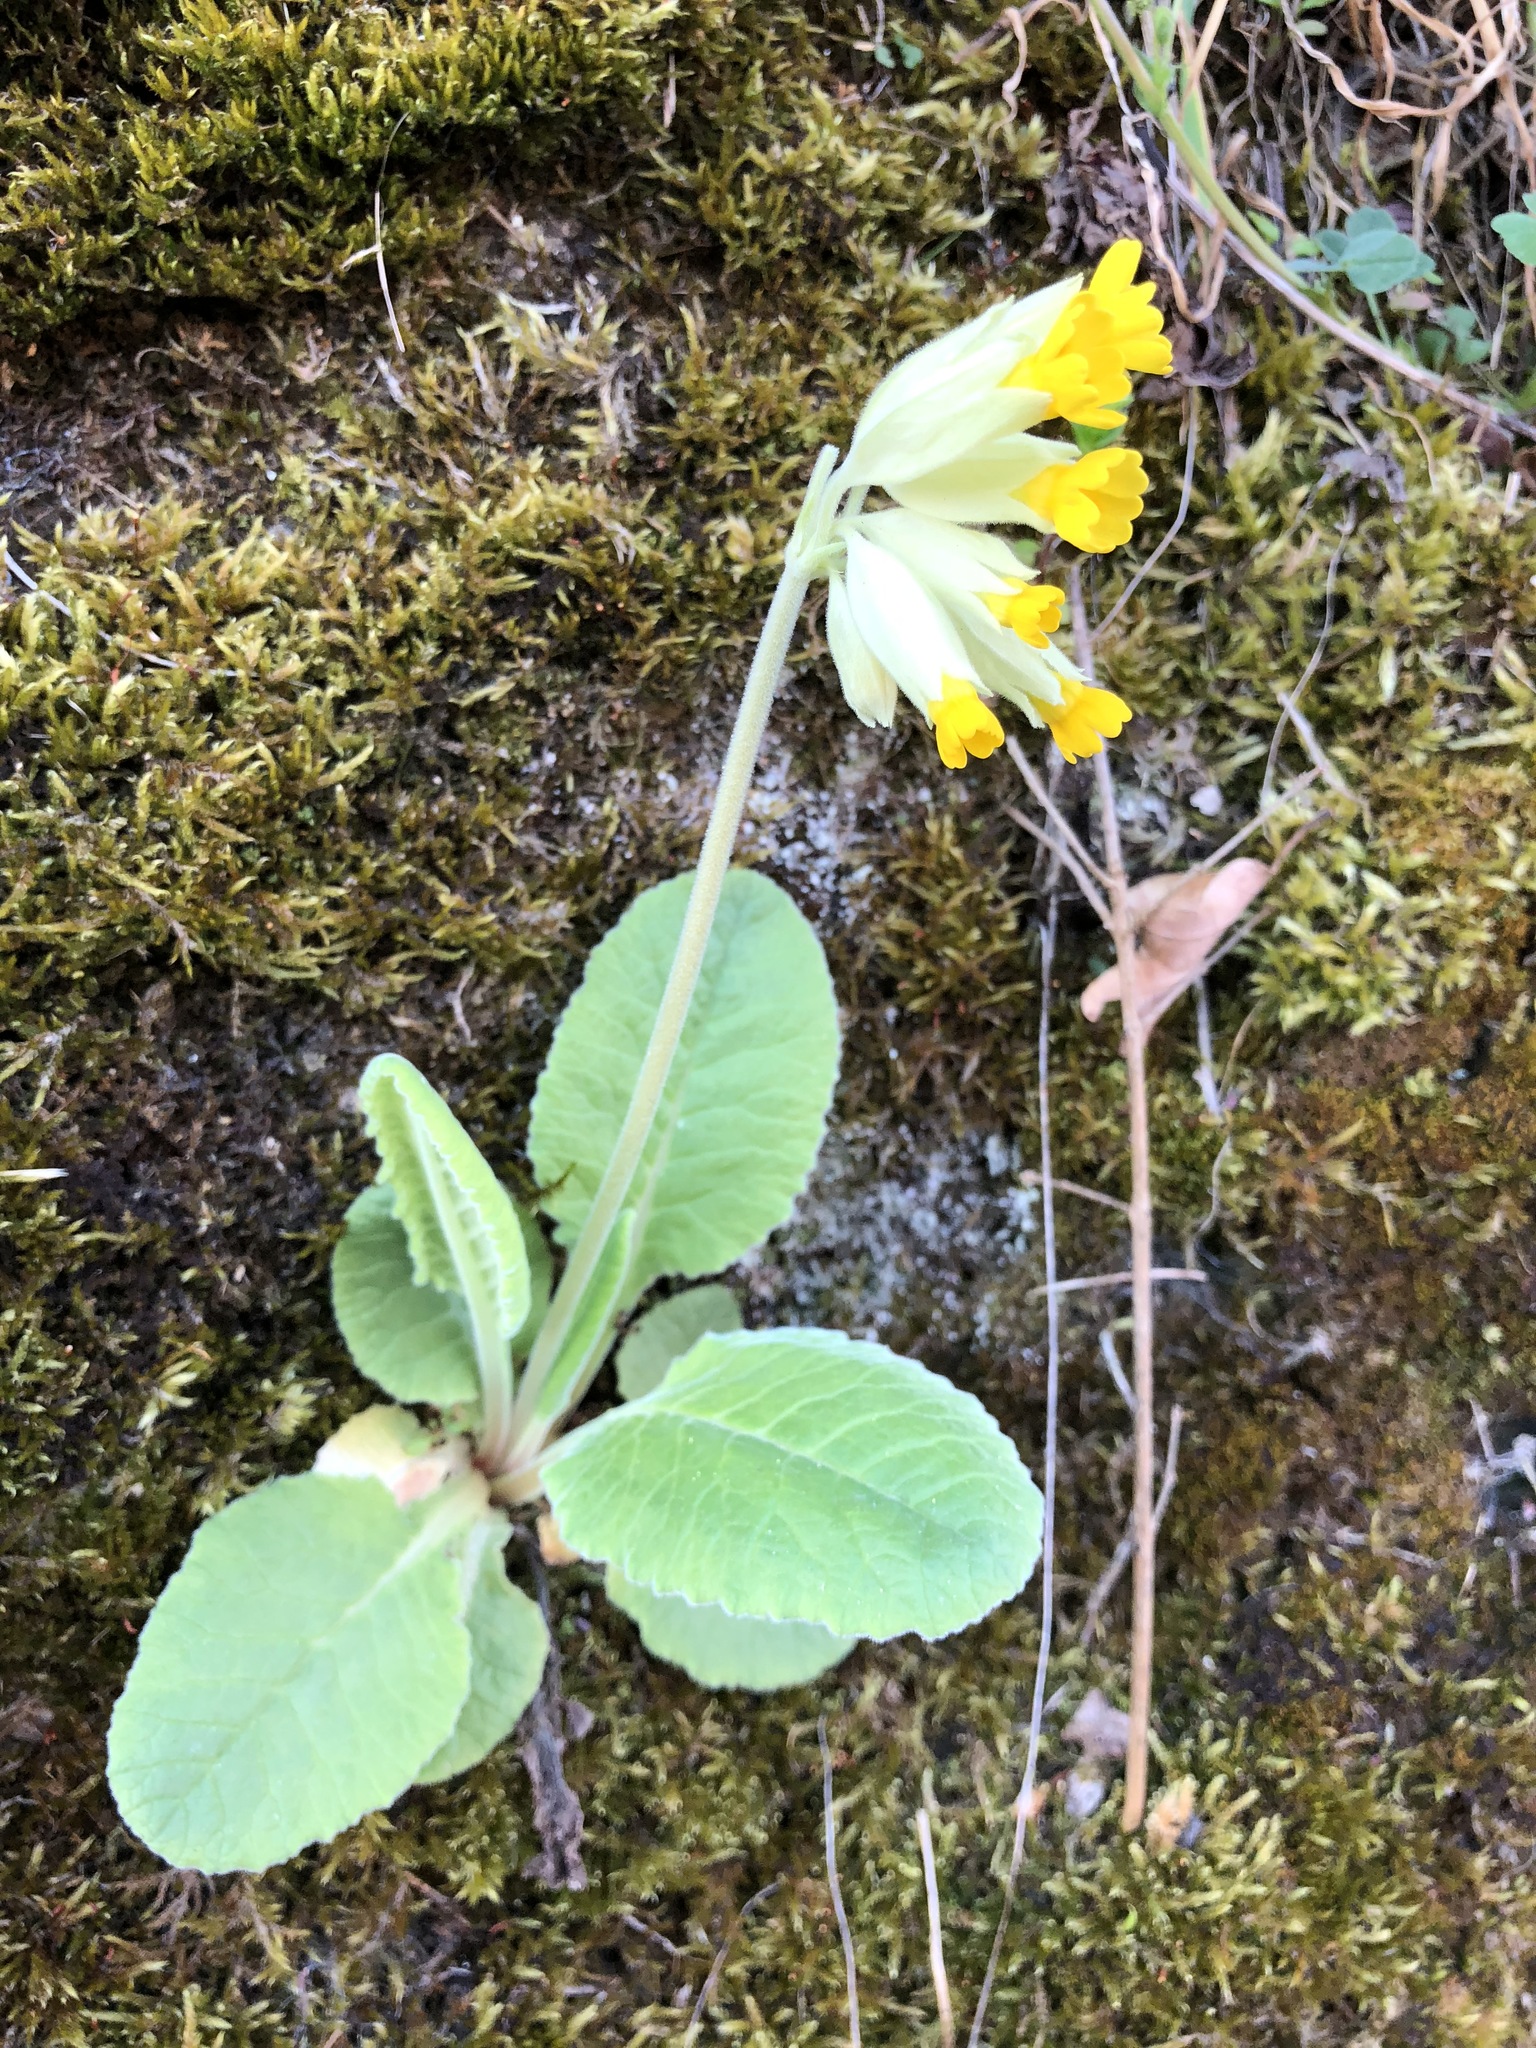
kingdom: Plantae
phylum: Tracheophyta
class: Magnoliopsida
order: Ericales
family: Primulaceae
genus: Primula
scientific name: Primula veris
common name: Cowslip
